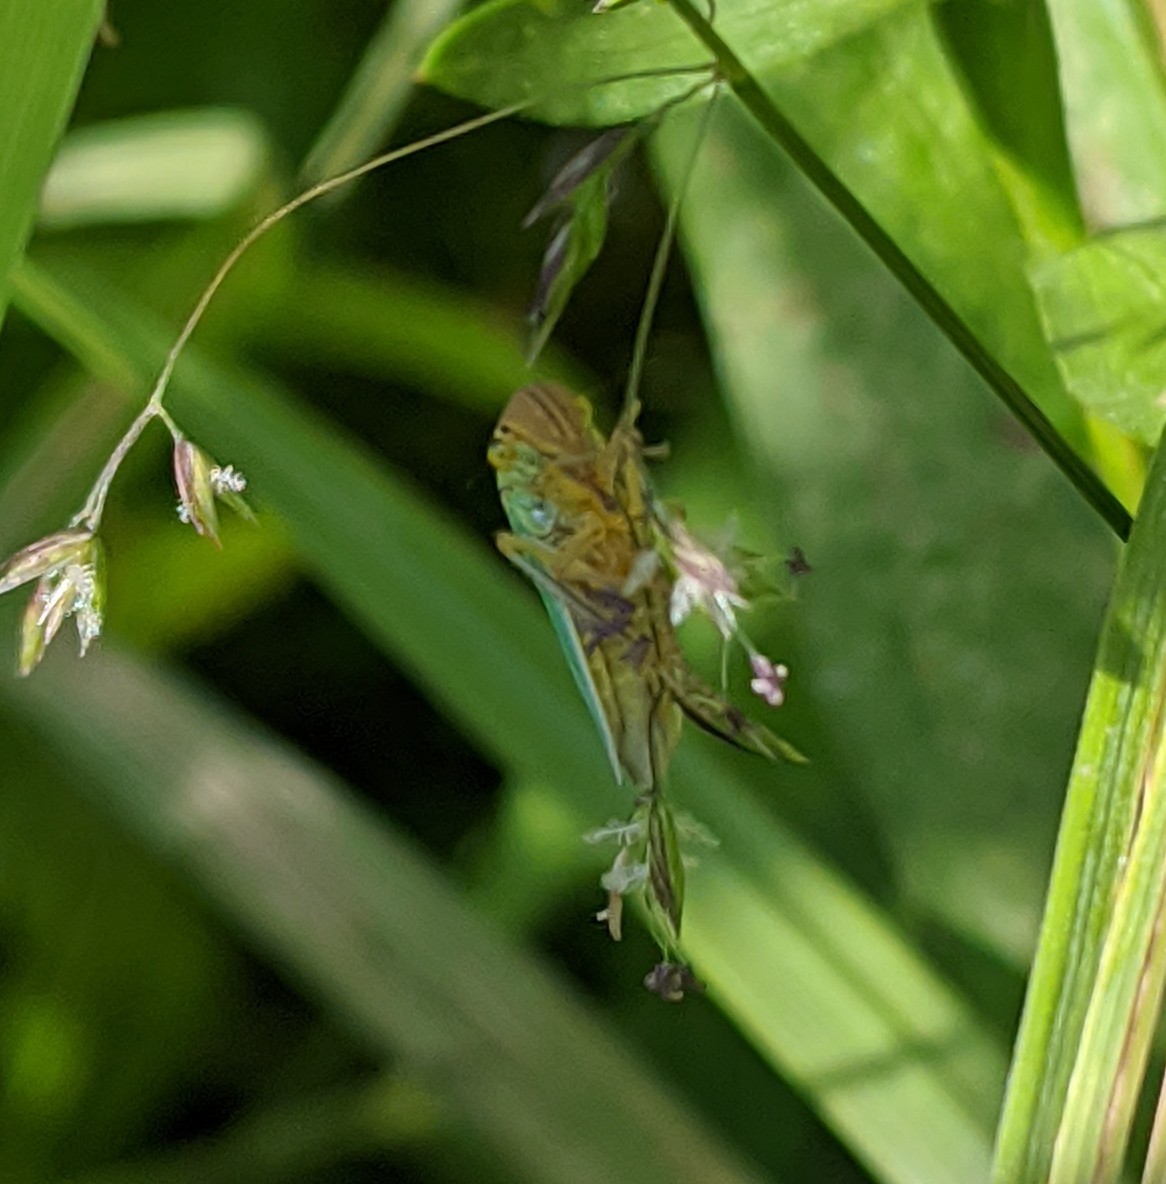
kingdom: Animalia
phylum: Arthropoda
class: Insecta
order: Hemiptera
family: Cicadellidae
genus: Cicadella
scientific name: Cicadella viridis
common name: Leafhopper
